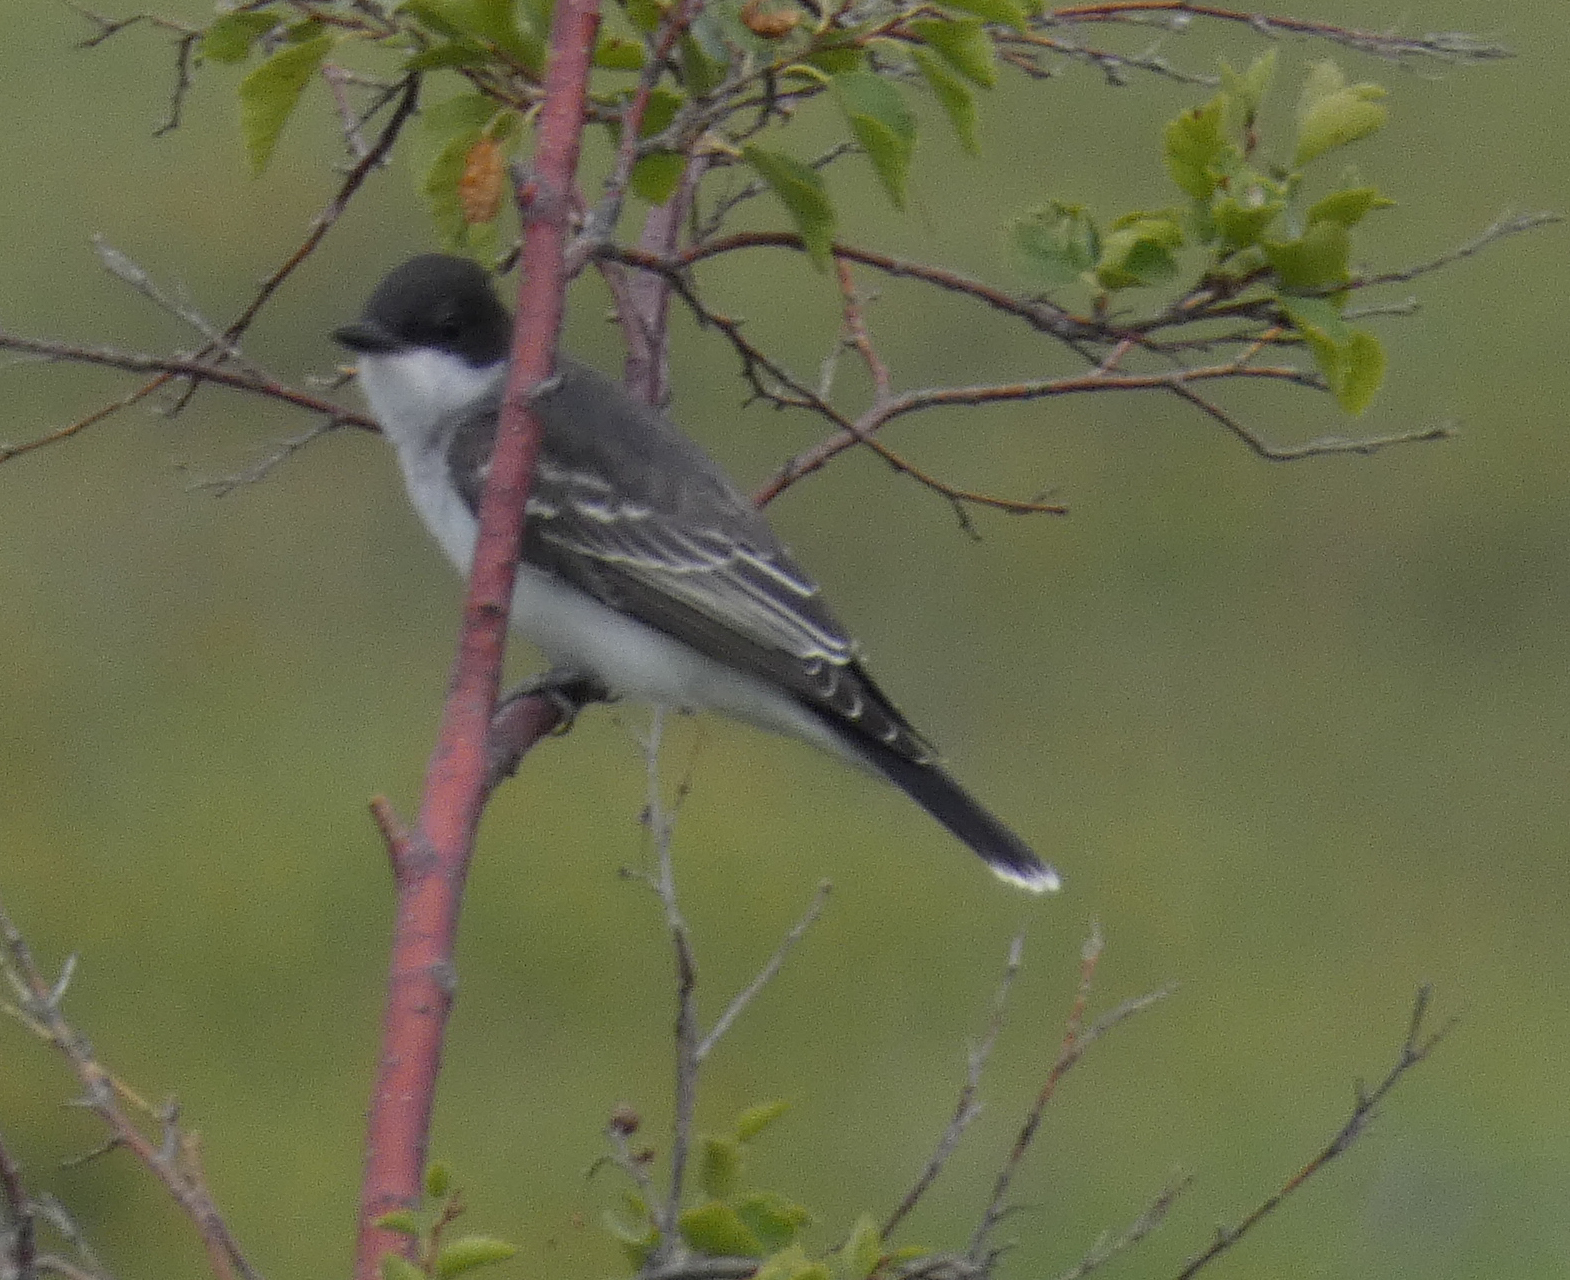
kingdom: Animalia
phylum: Chordata
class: Aves
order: Passeriformes
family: Tyrannidae
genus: Tyrannus
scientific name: Tyrannus tyrannus
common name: Eastern kingbird
